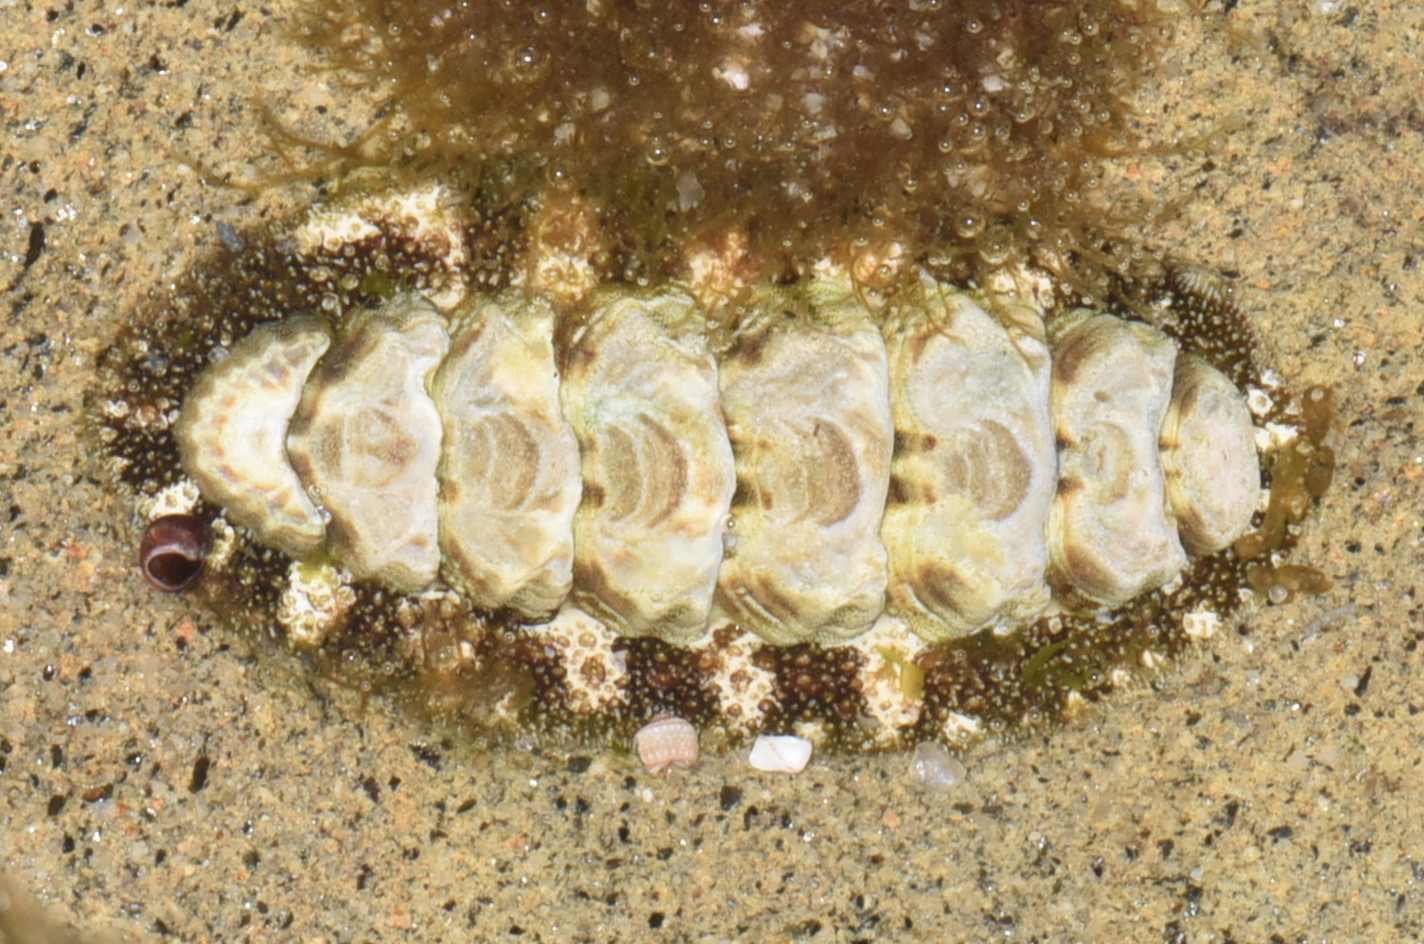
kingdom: Animalia
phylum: Mollusca
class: Polyplacophora
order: Chitonida
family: Tonicellidae
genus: Nuttallina
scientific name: Nuttallina californica
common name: California nuttall chiton
